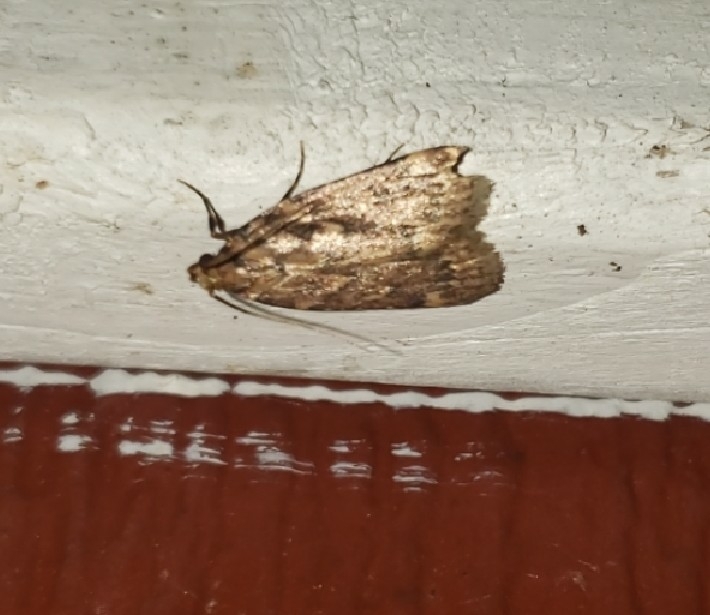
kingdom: Animalia
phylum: Arthropoda
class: Insecta
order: Lepidoptera
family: Pyralidae
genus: Aglossa
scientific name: Aglossa cuprina
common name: Grease moth
